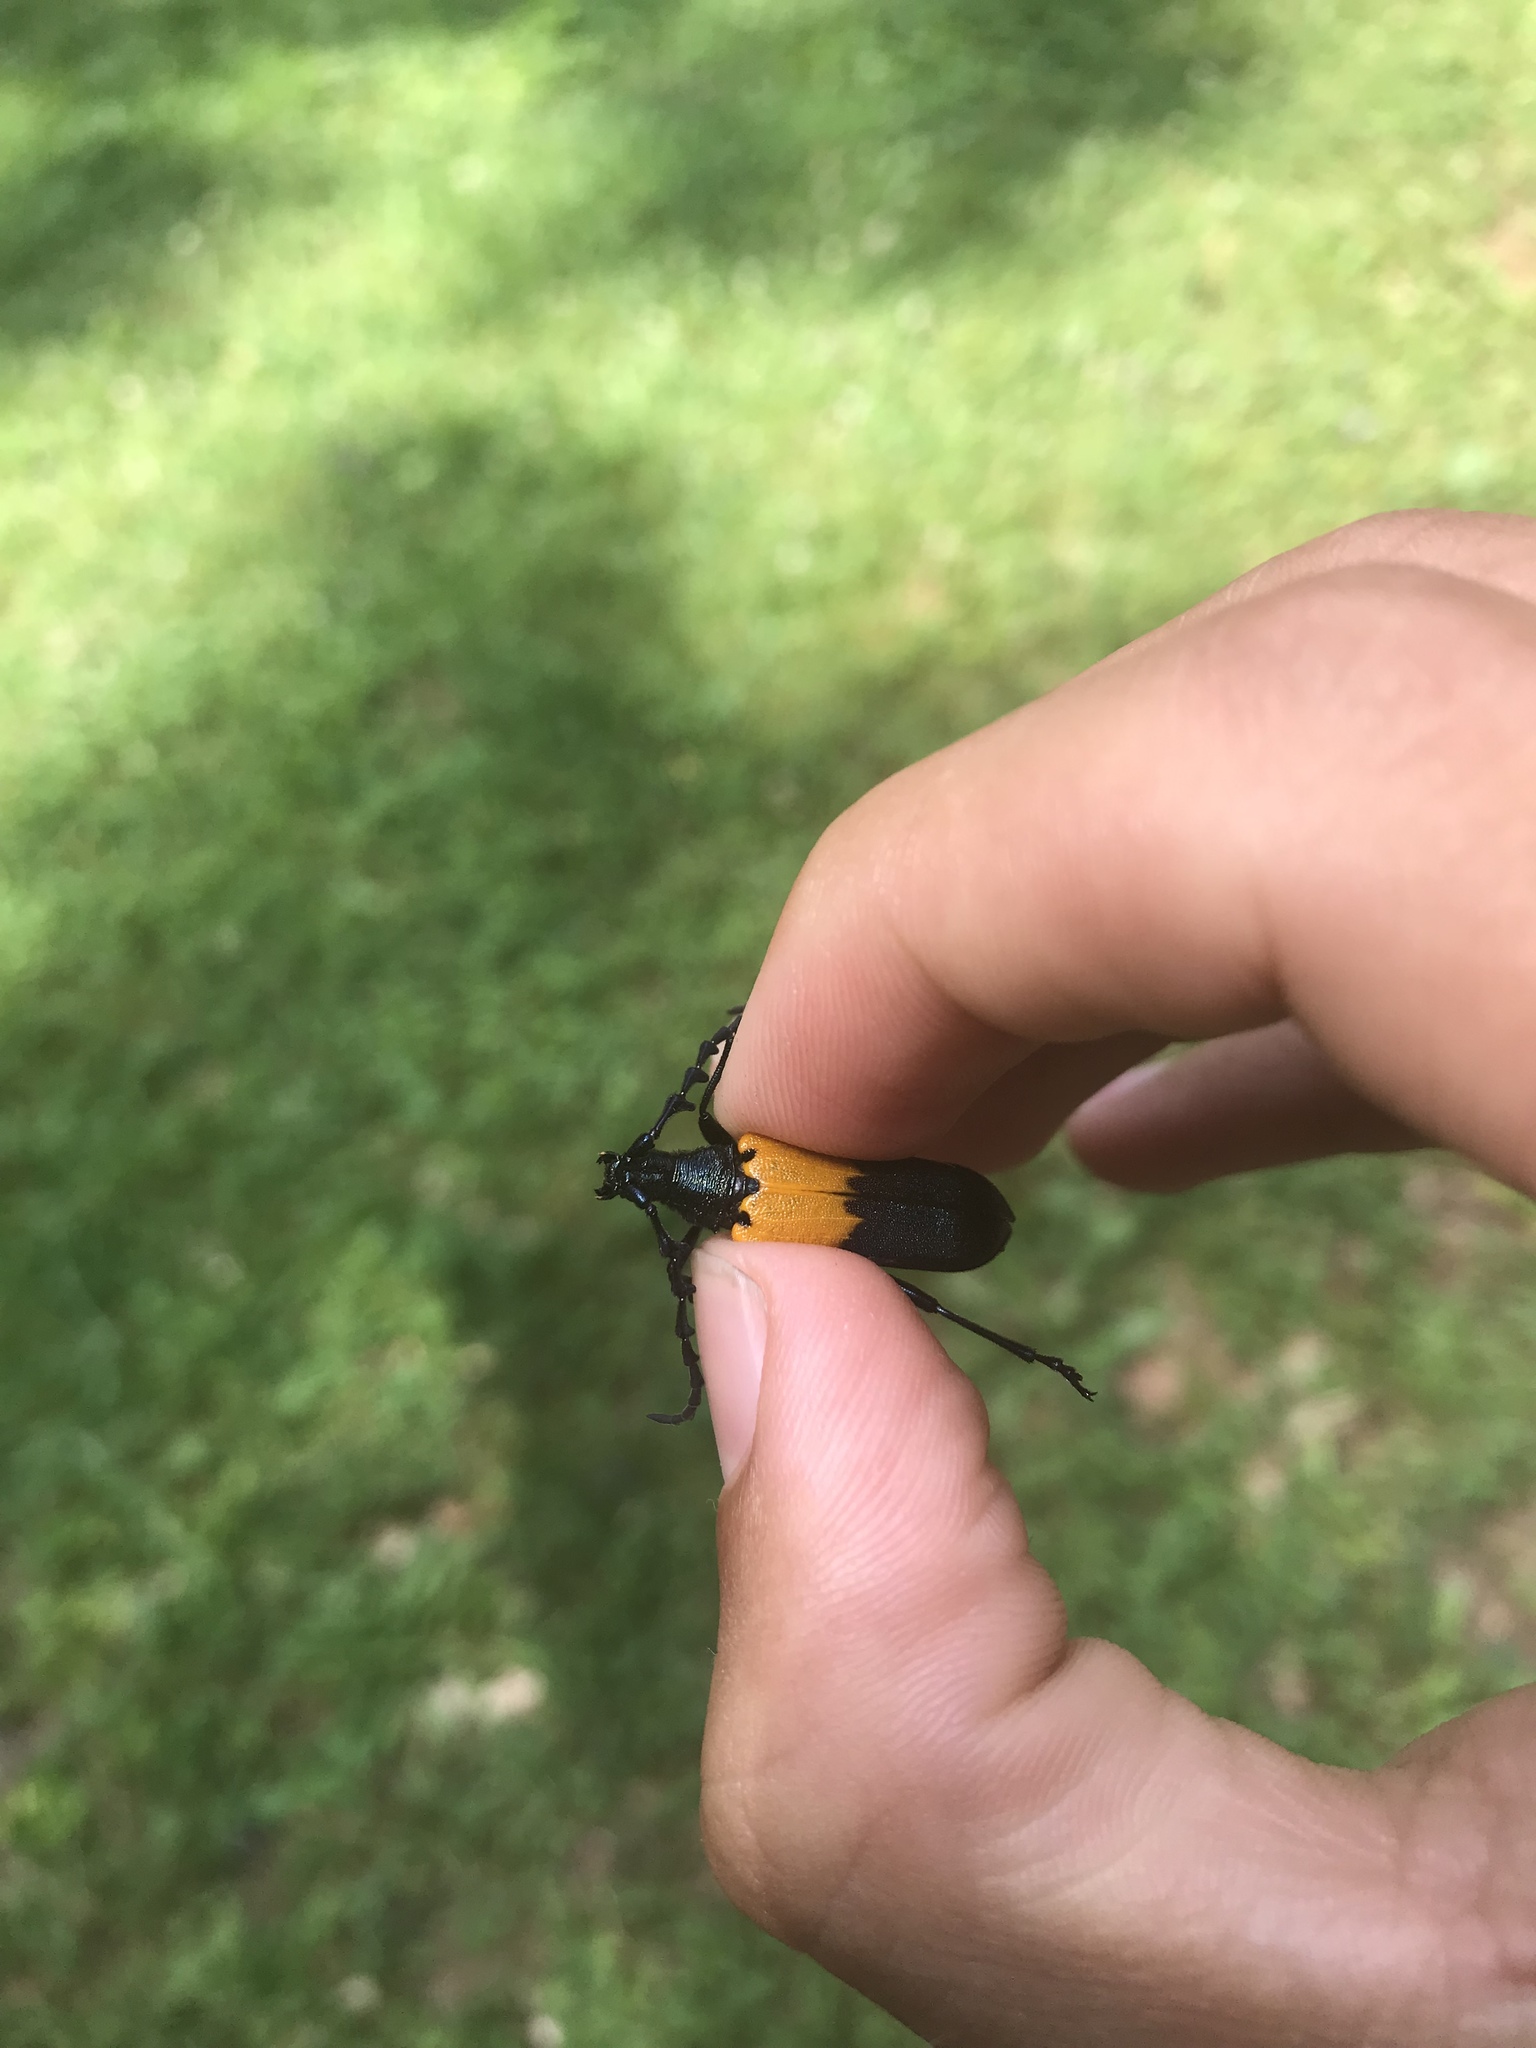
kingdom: Animalia
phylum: Arthropoda
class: Insecta
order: Coleoptera
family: Cerambycidae
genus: Desmocerus
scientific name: Desmocerus palliatus
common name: Eastern elderberry borer
